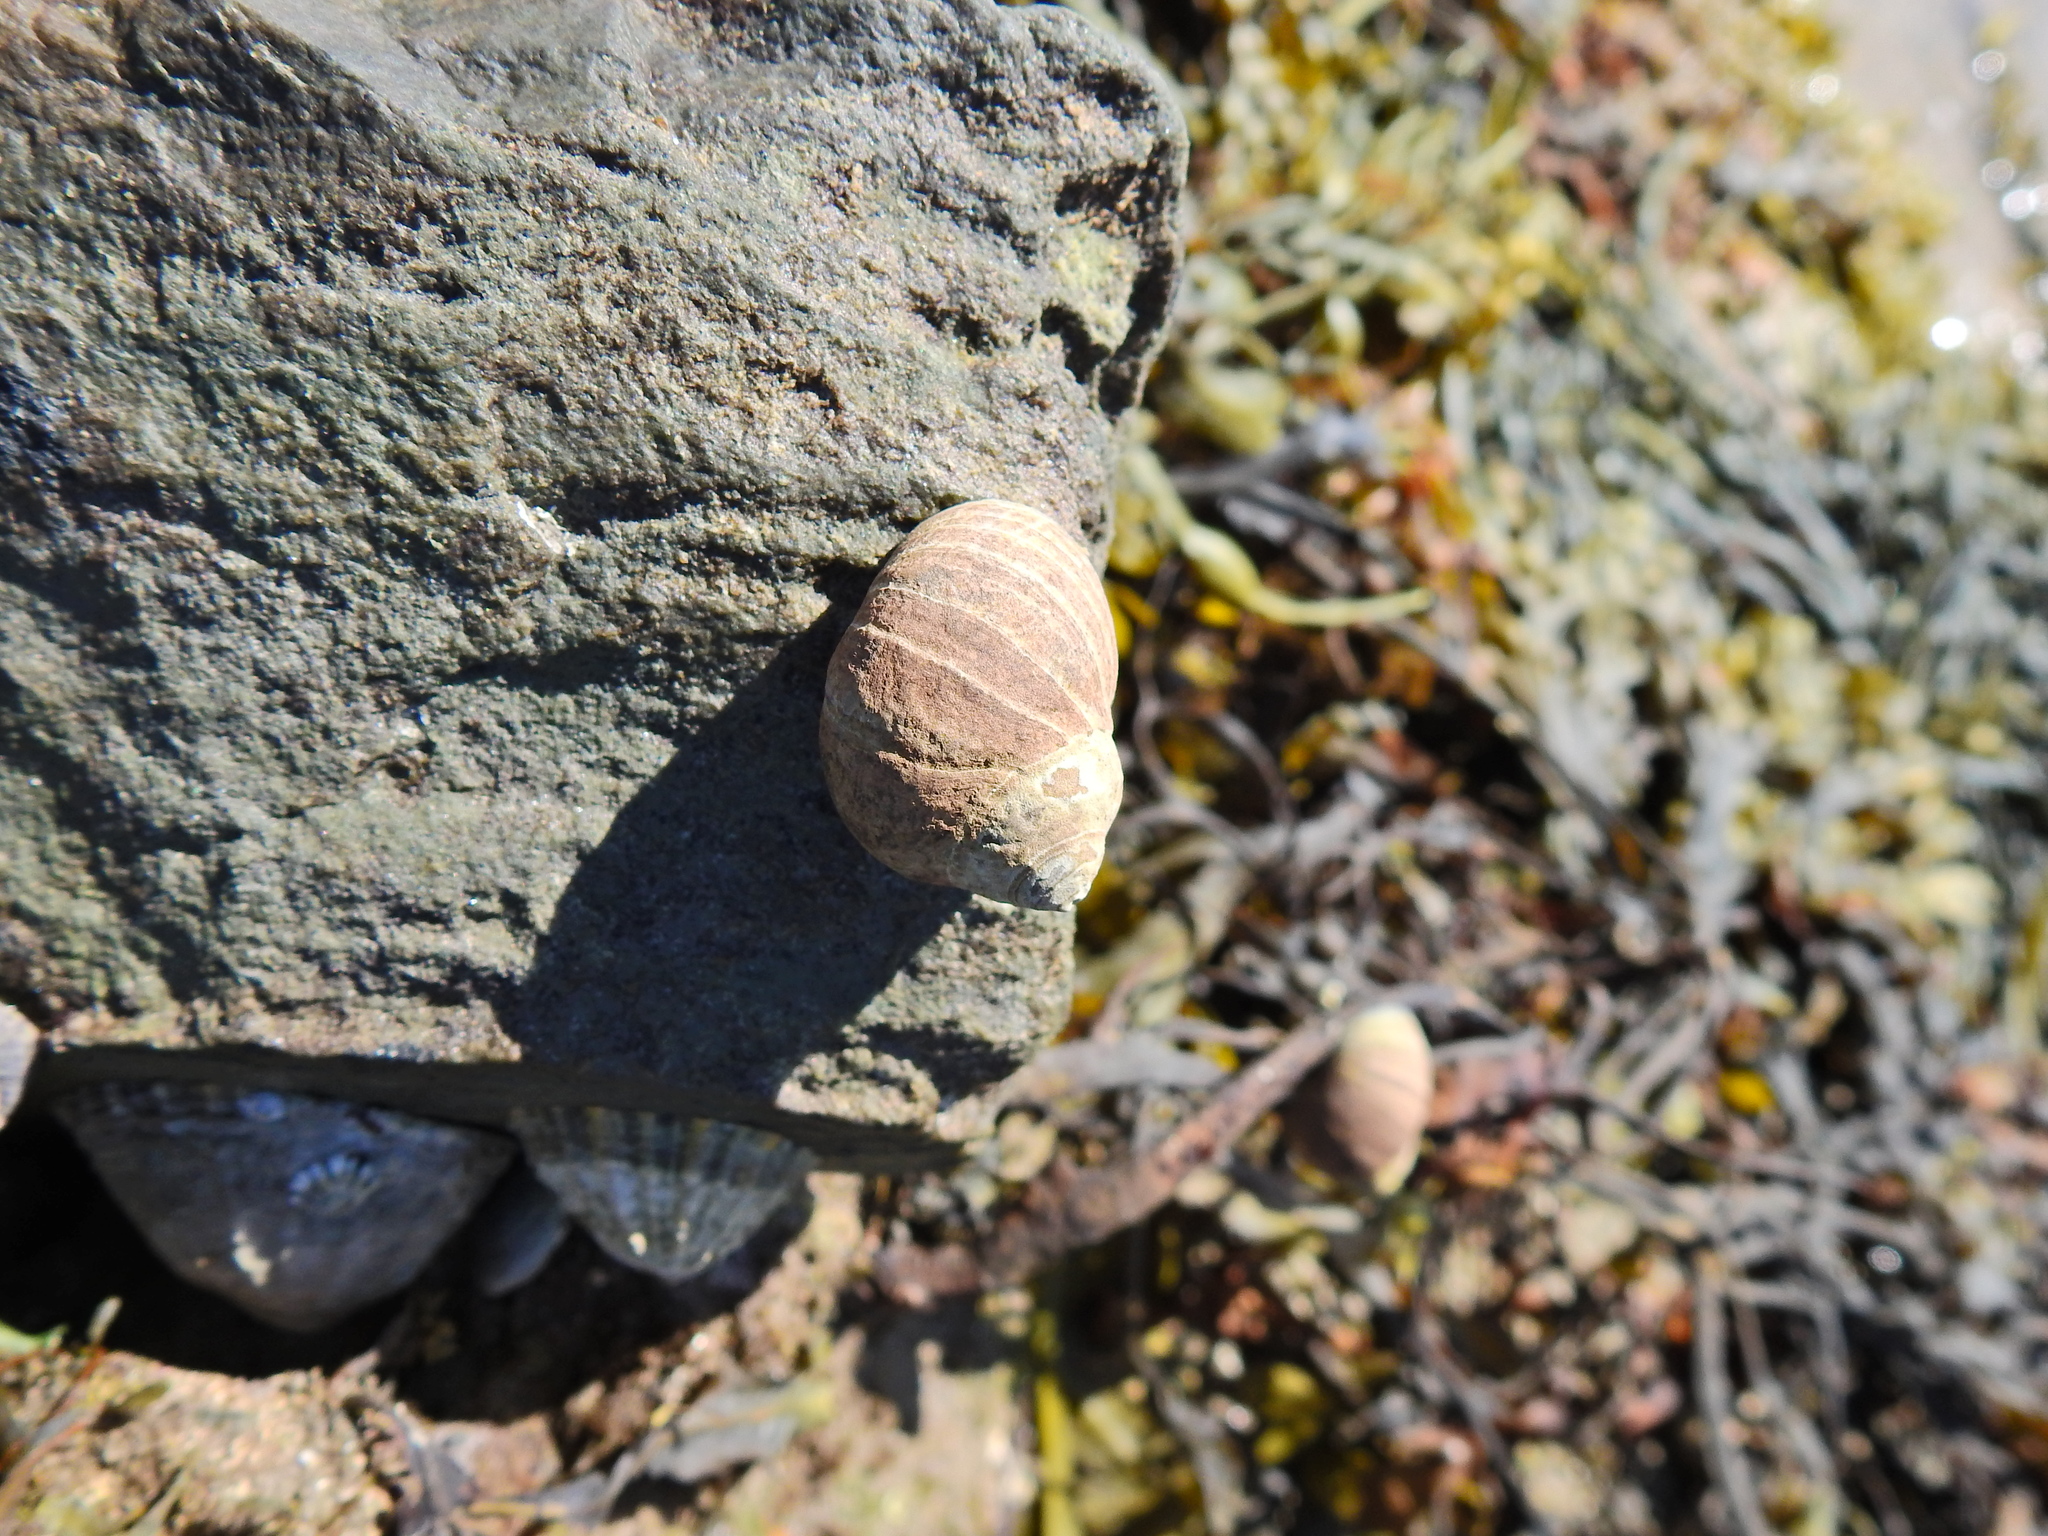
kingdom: Animalia
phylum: Mollusca
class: Gastropoda
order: Littorinimorpha
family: Littorinidae
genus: Littorina
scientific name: Littorina littorea
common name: Common periwinkle
